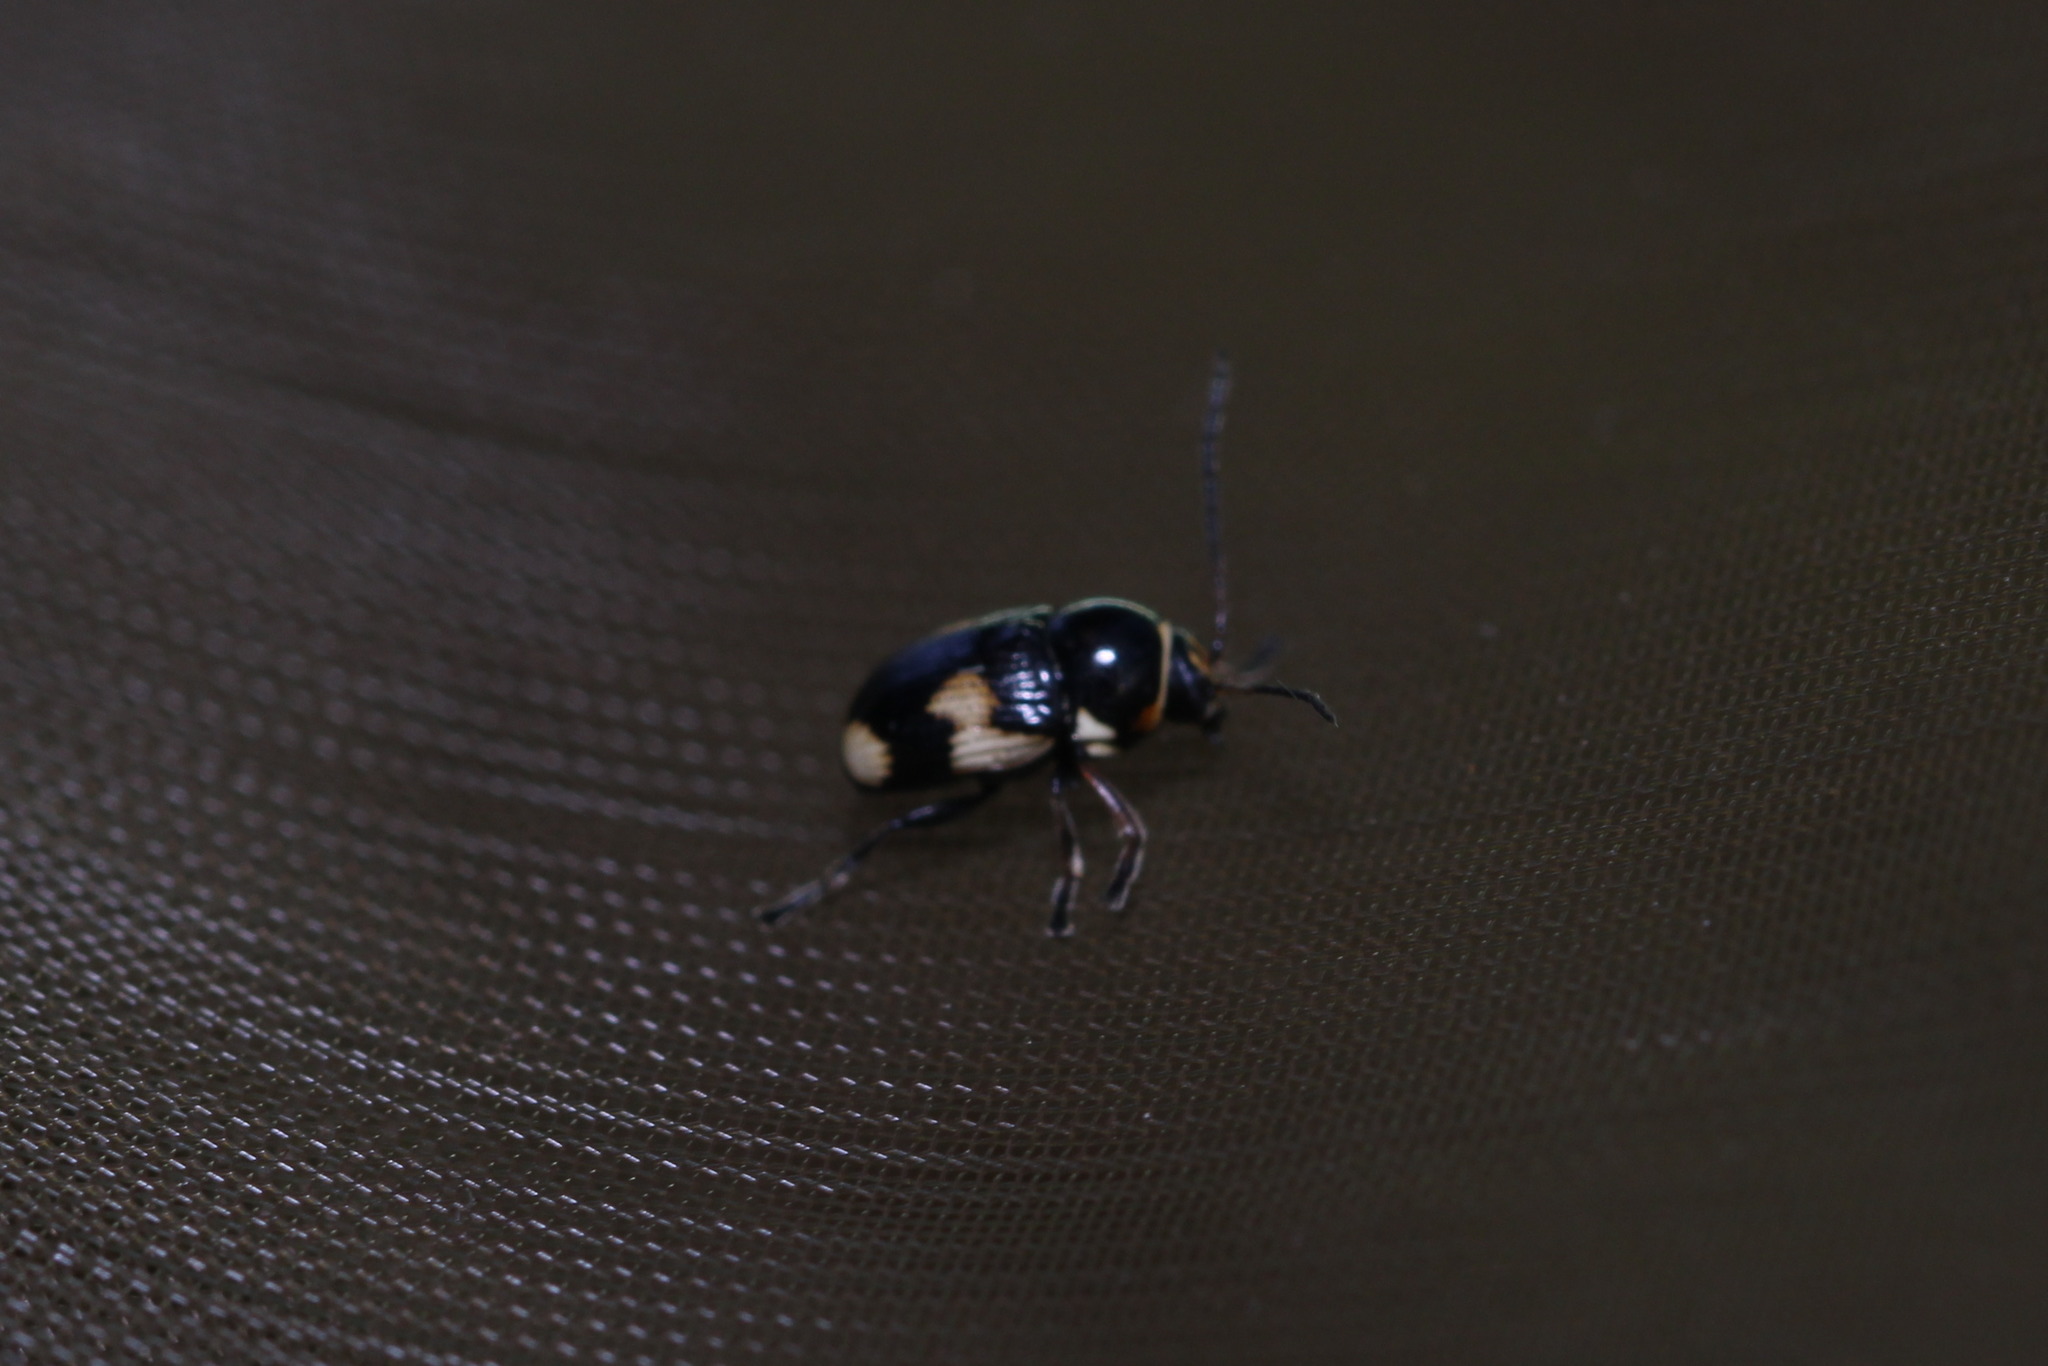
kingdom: Animalia
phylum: Arthropoda
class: Insecta
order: Coleoptera
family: Chrysomelidae
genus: Cryptocephalus
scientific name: Cryptocephalus moraei
